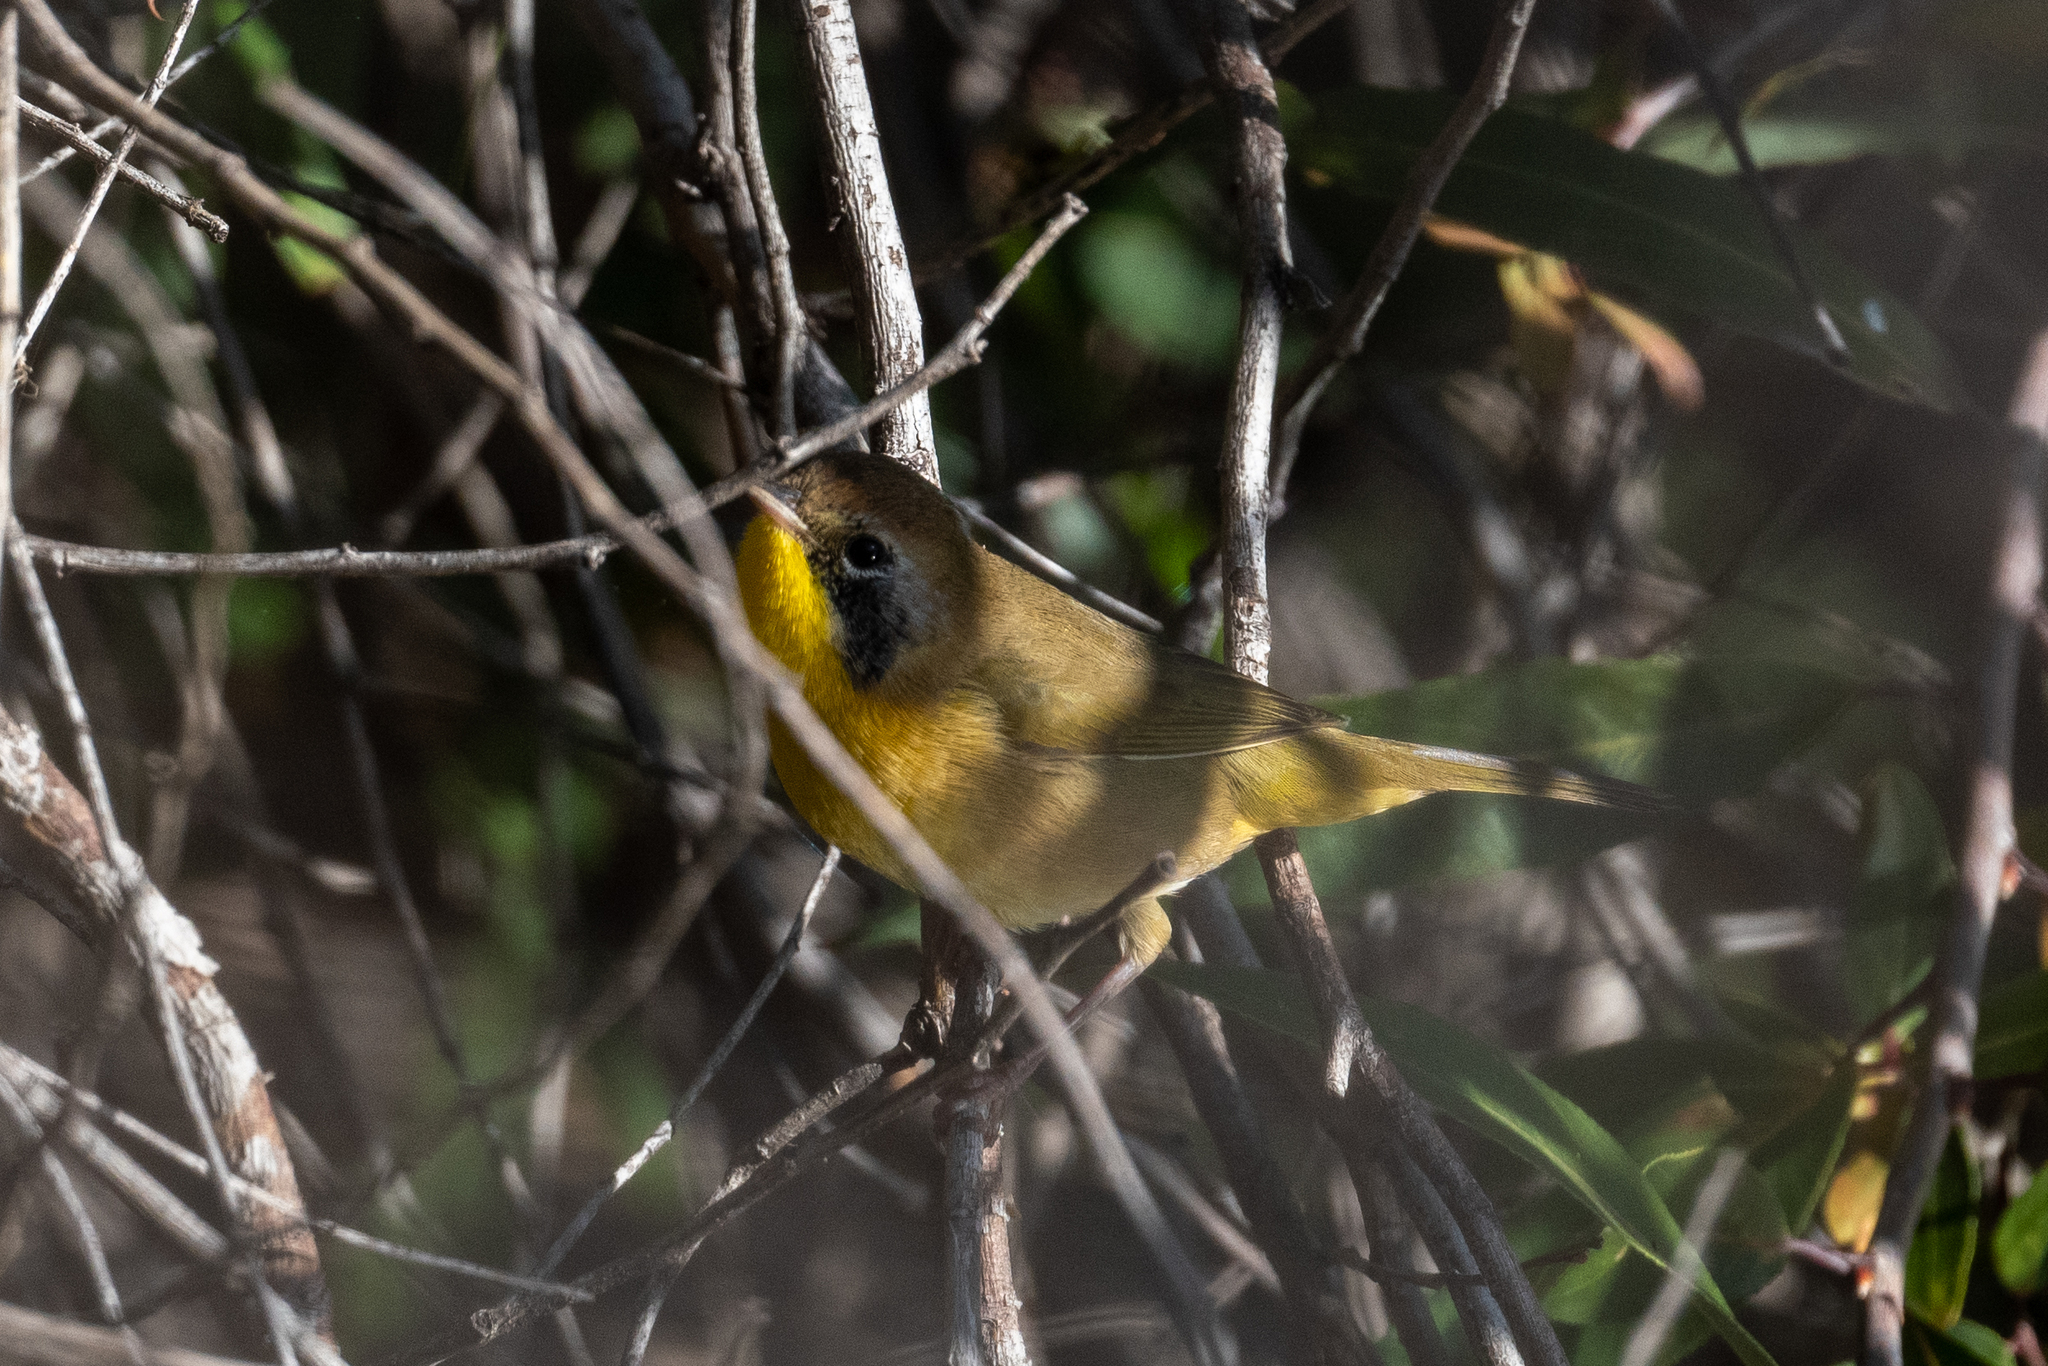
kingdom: Animalia
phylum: Chordata
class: Aves
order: Passeriformes
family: Parulidae
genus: Geothlypis
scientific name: Geothlypis trichas
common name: Common yellowthroat
